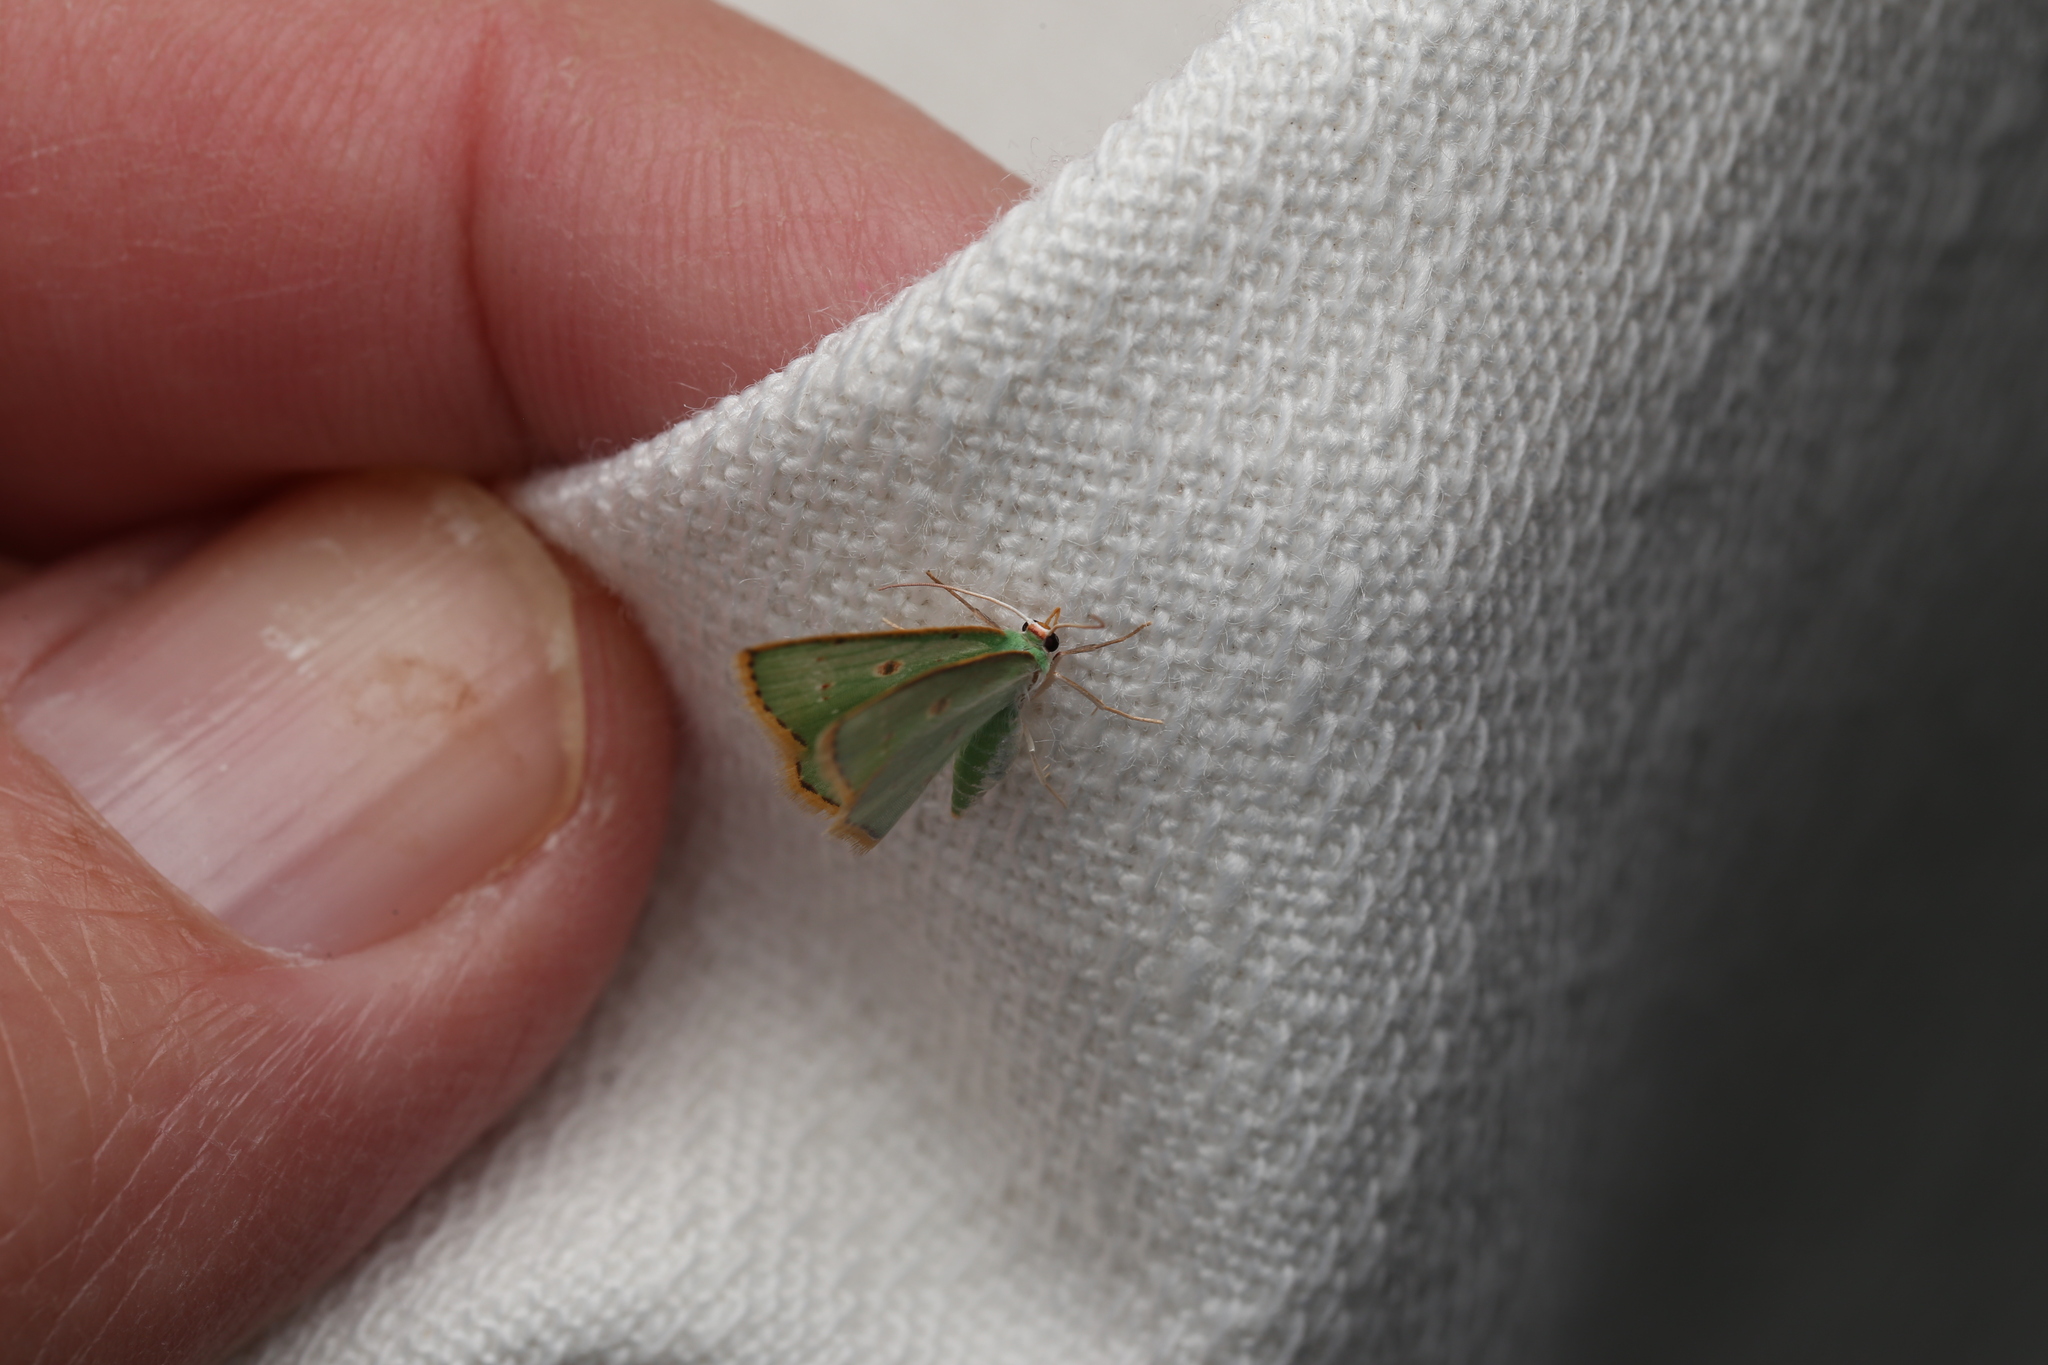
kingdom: Animalia
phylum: Arthropoda
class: Insecta
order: Lepidoptera
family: Geometridae
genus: Comostola
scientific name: Comostola laesaria
